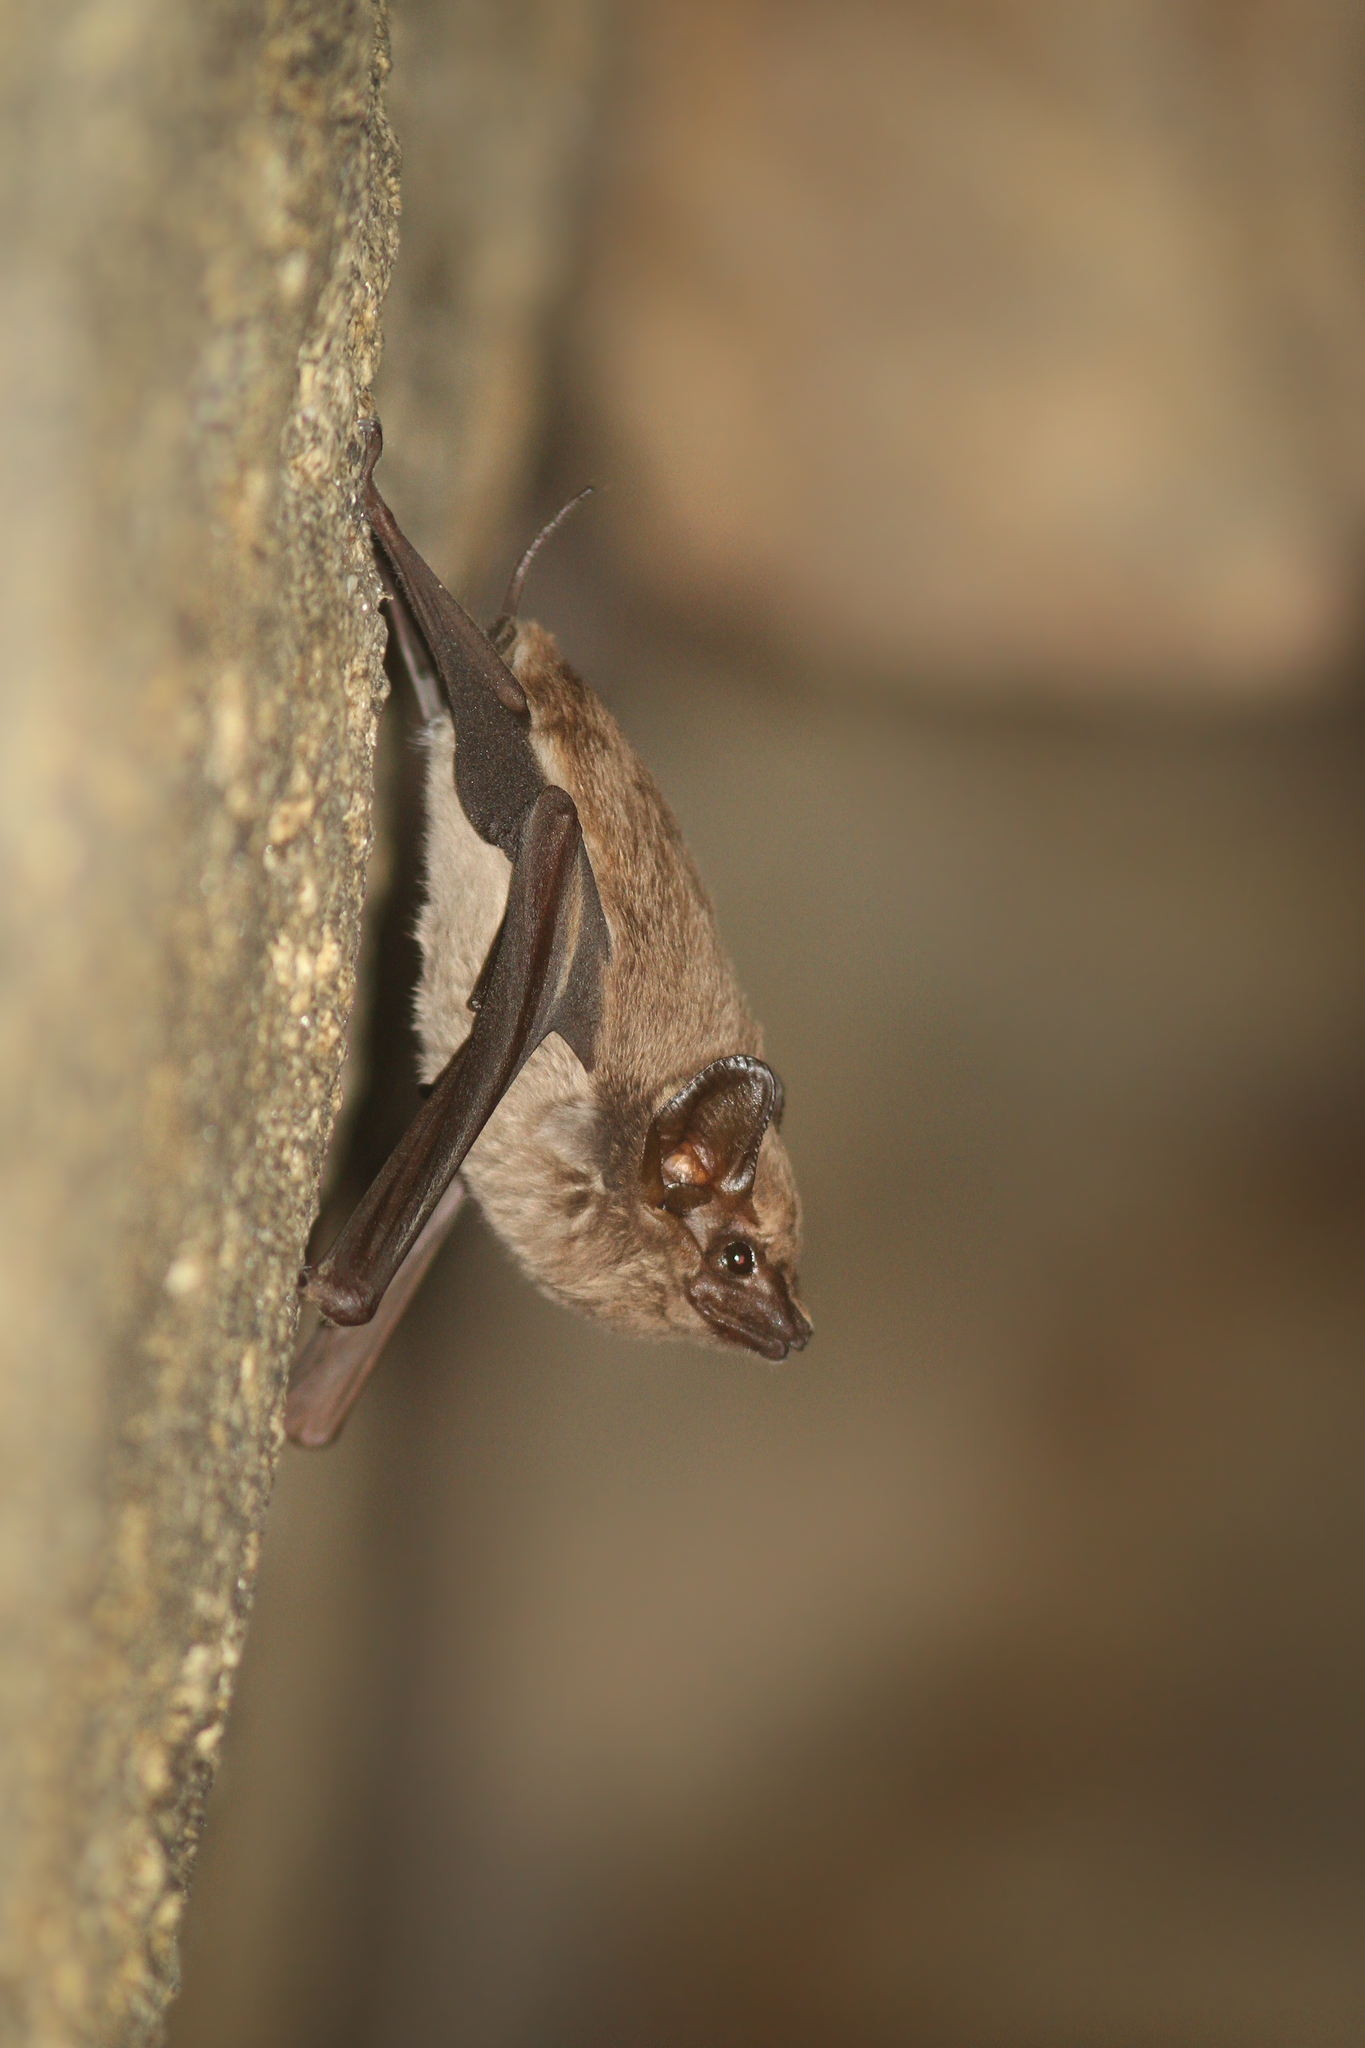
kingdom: Animalia
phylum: Chordata
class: Mammalia
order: Chiroptera
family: Emballonuridae
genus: Taphozous
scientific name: Taphozous australis
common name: Coastal tomb bat
